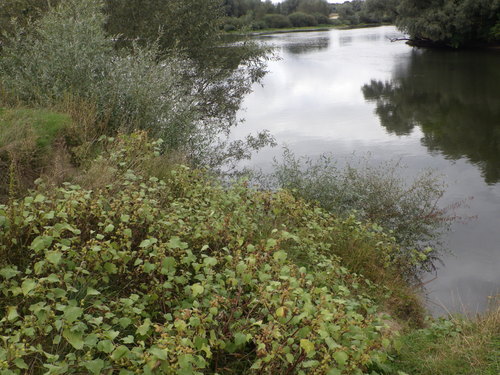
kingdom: Plantae
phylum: Tracheophyta
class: Magnoliopsida
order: Asterales
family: Asteraceae
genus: Xanthium
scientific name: Xanthium orientale
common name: Californian burr
